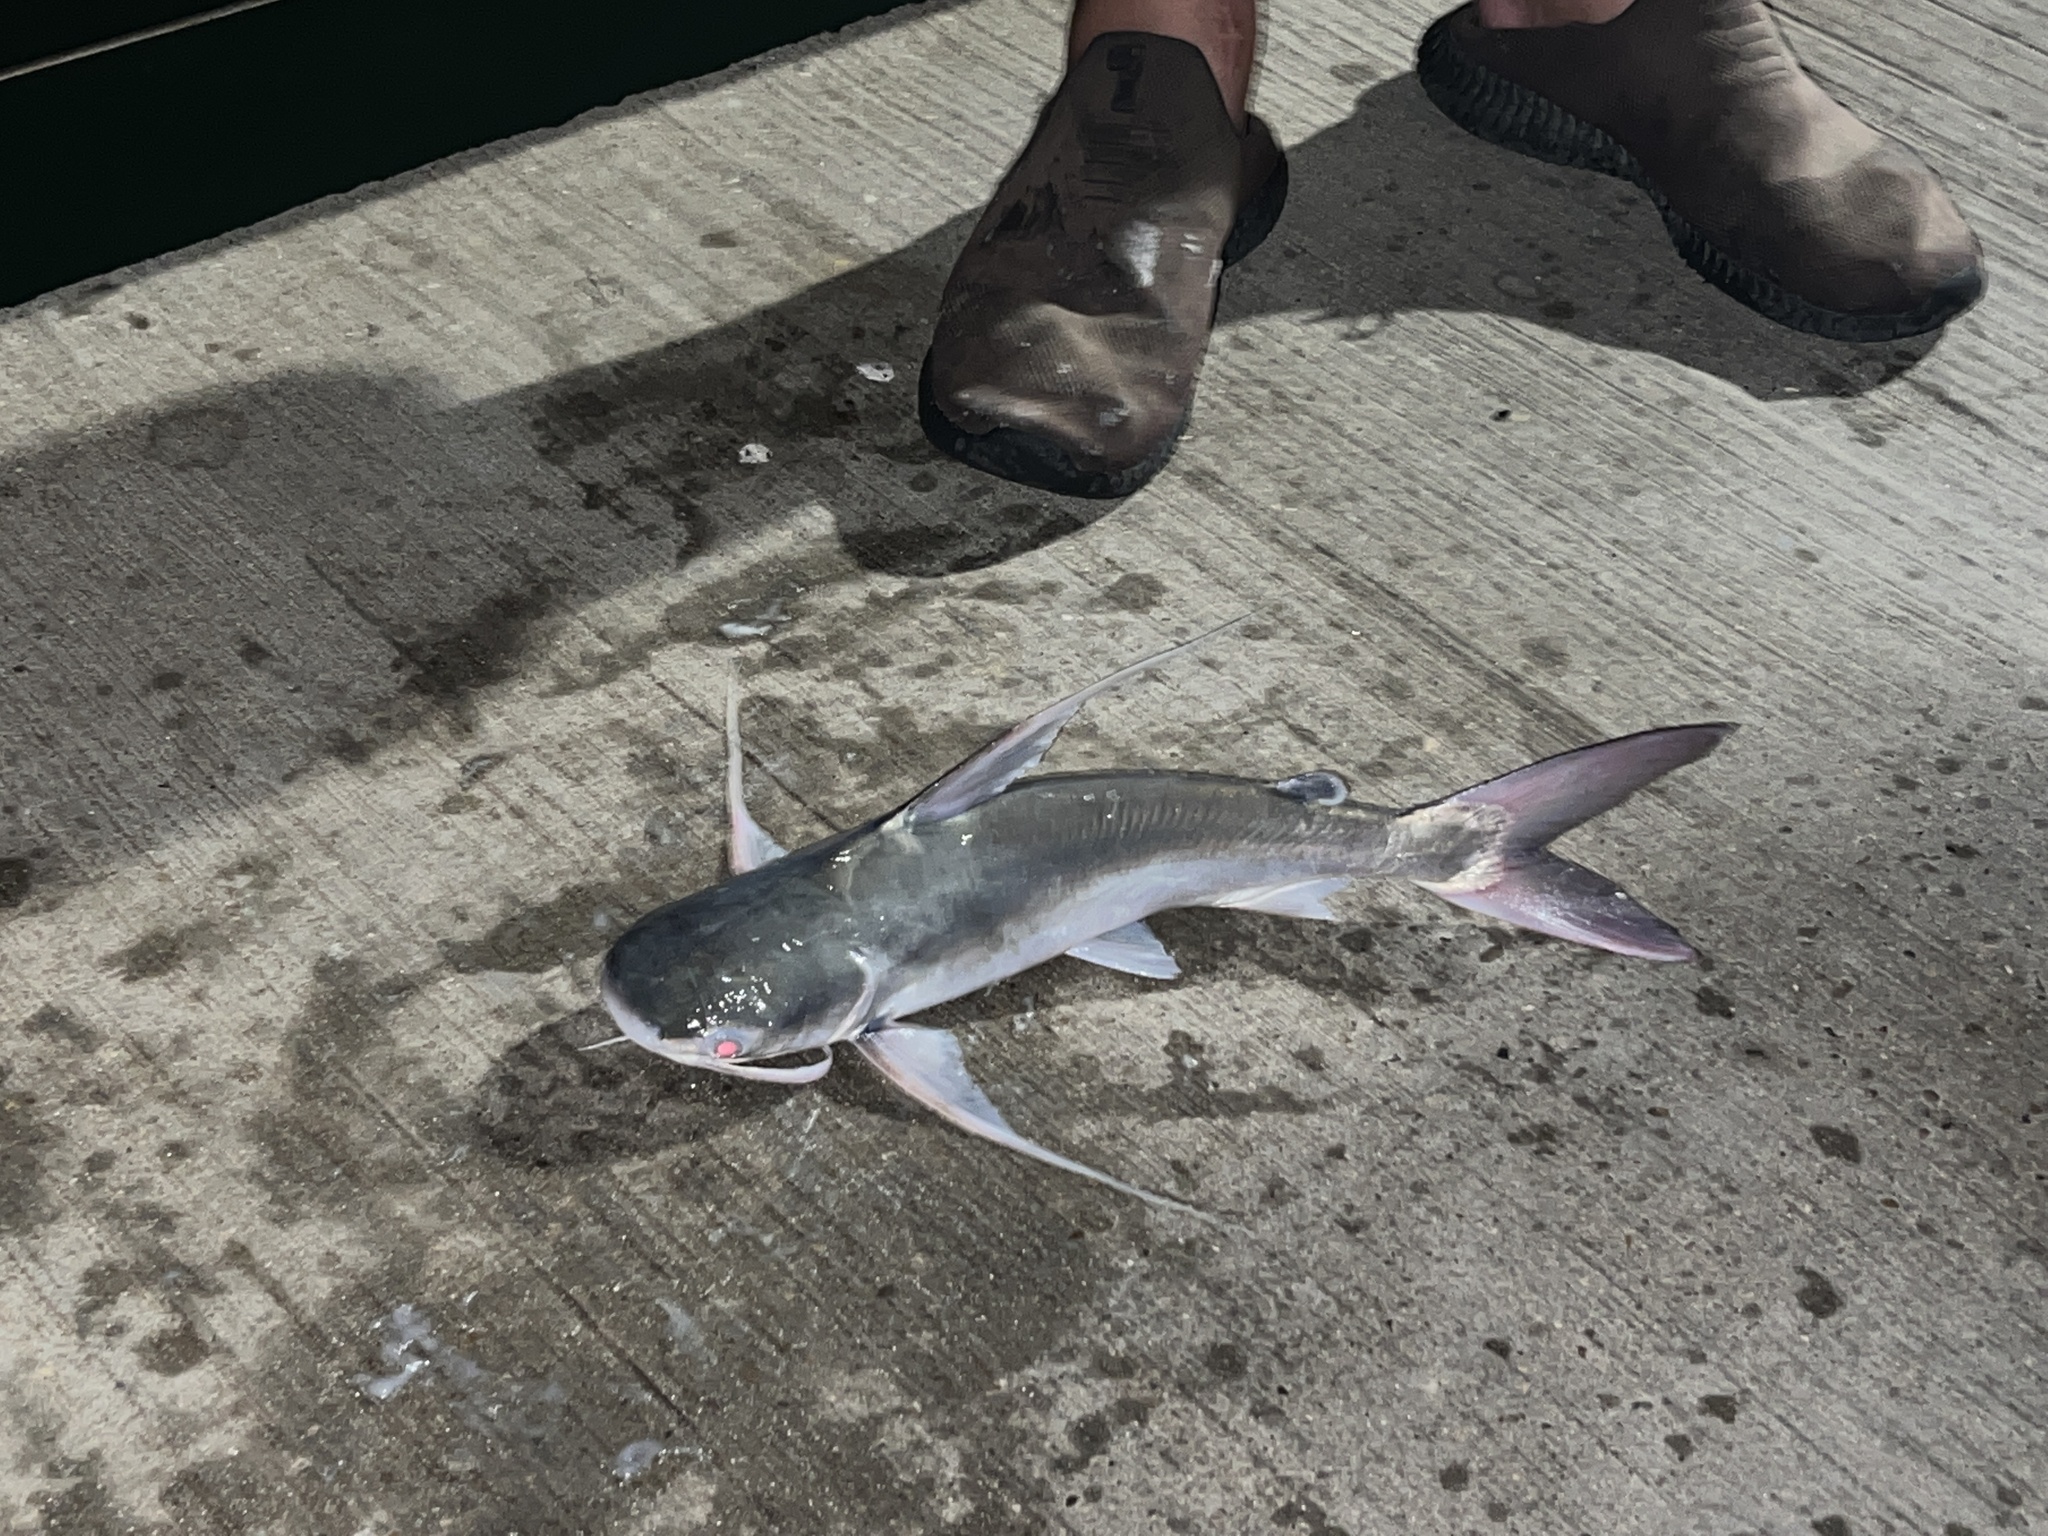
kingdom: Animalia
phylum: Chordata
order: Siluriformes
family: Ariidae
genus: Bagre
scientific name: Bagre marinus
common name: Gafftopsail sea catfish
